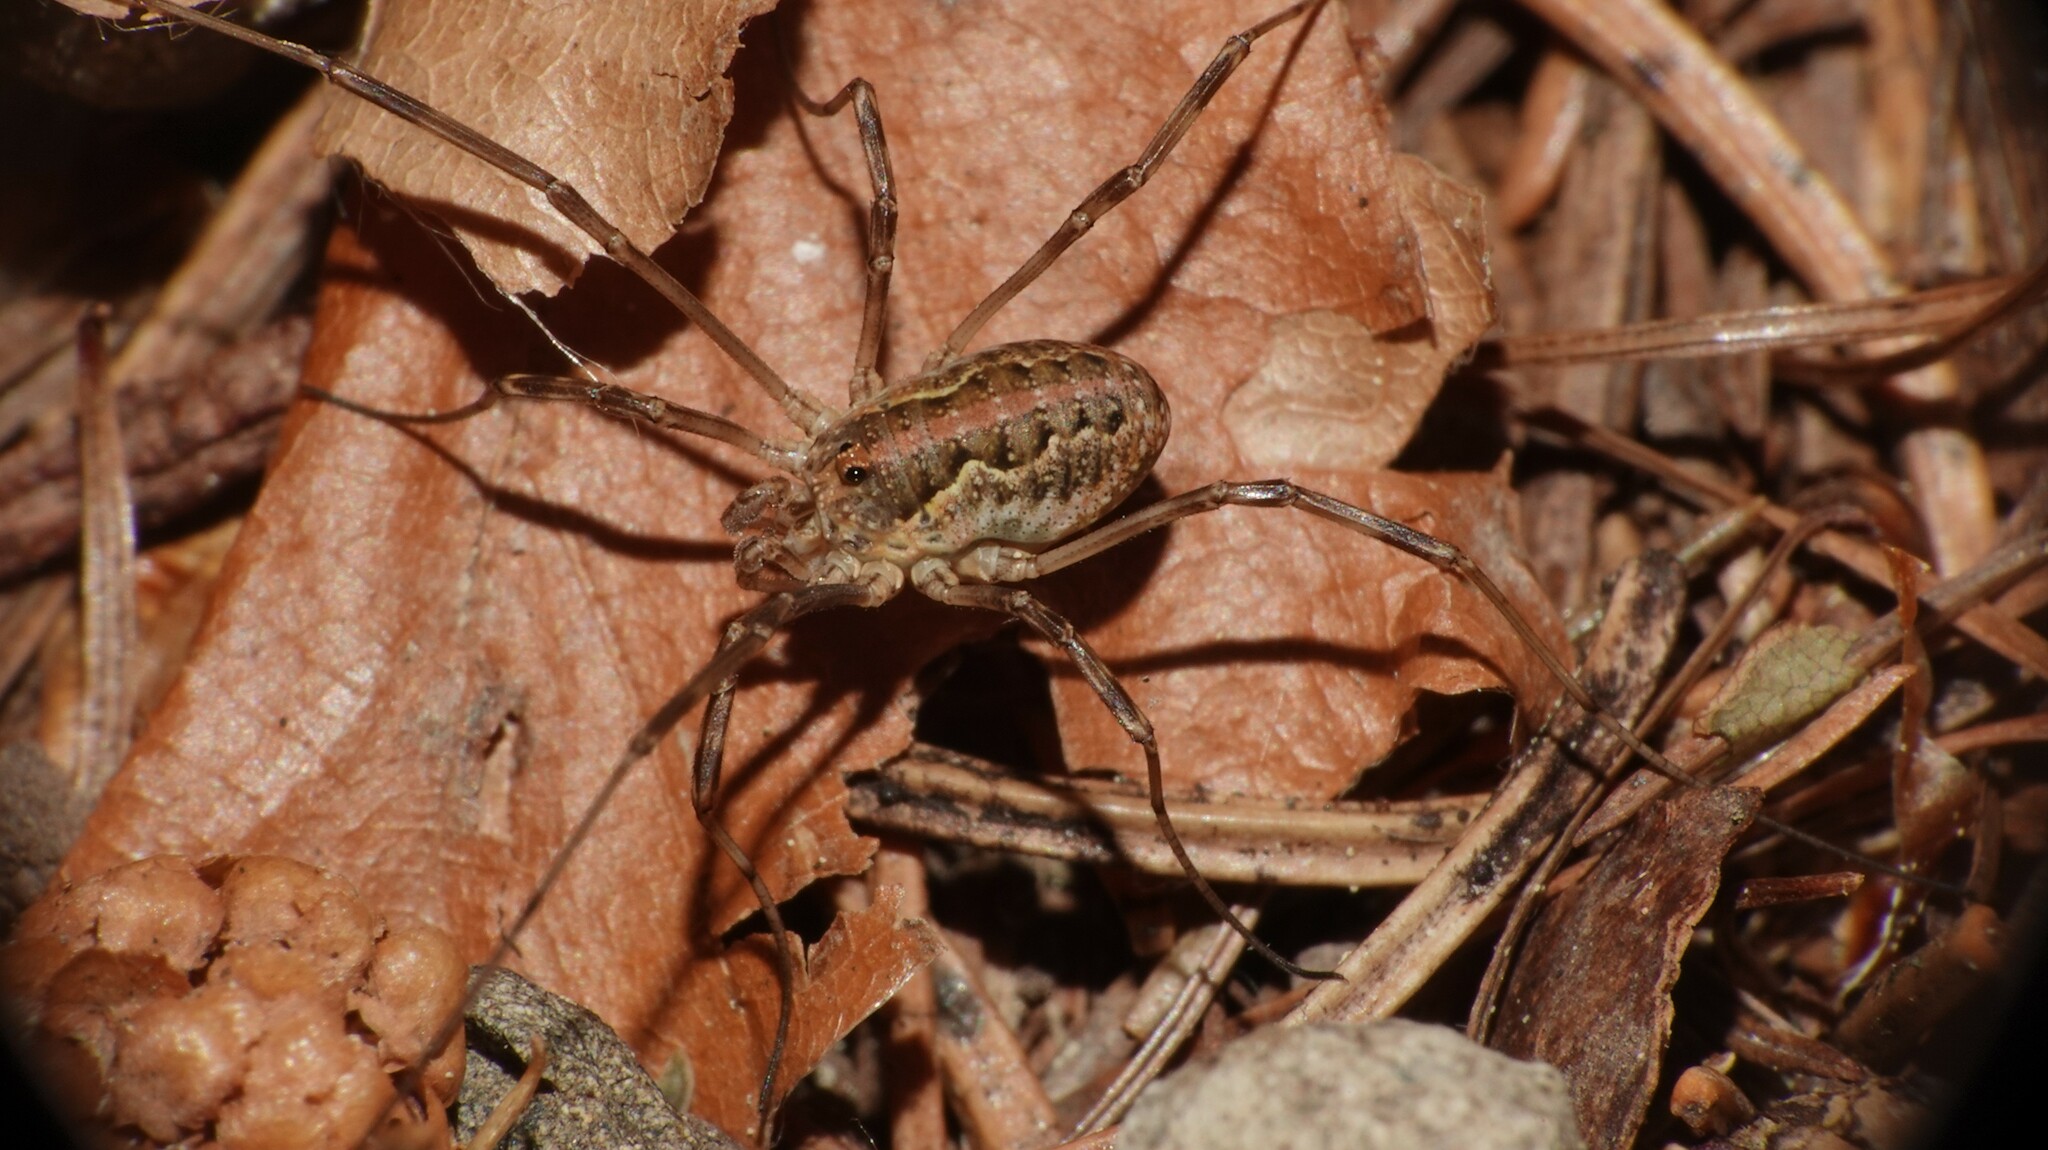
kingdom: Animalia
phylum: Arthropoda
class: Arachnida
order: Opiliones
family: Phalangiidae
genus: Mitopus
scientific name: Mitopus morio
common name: Saddleback harvestman
